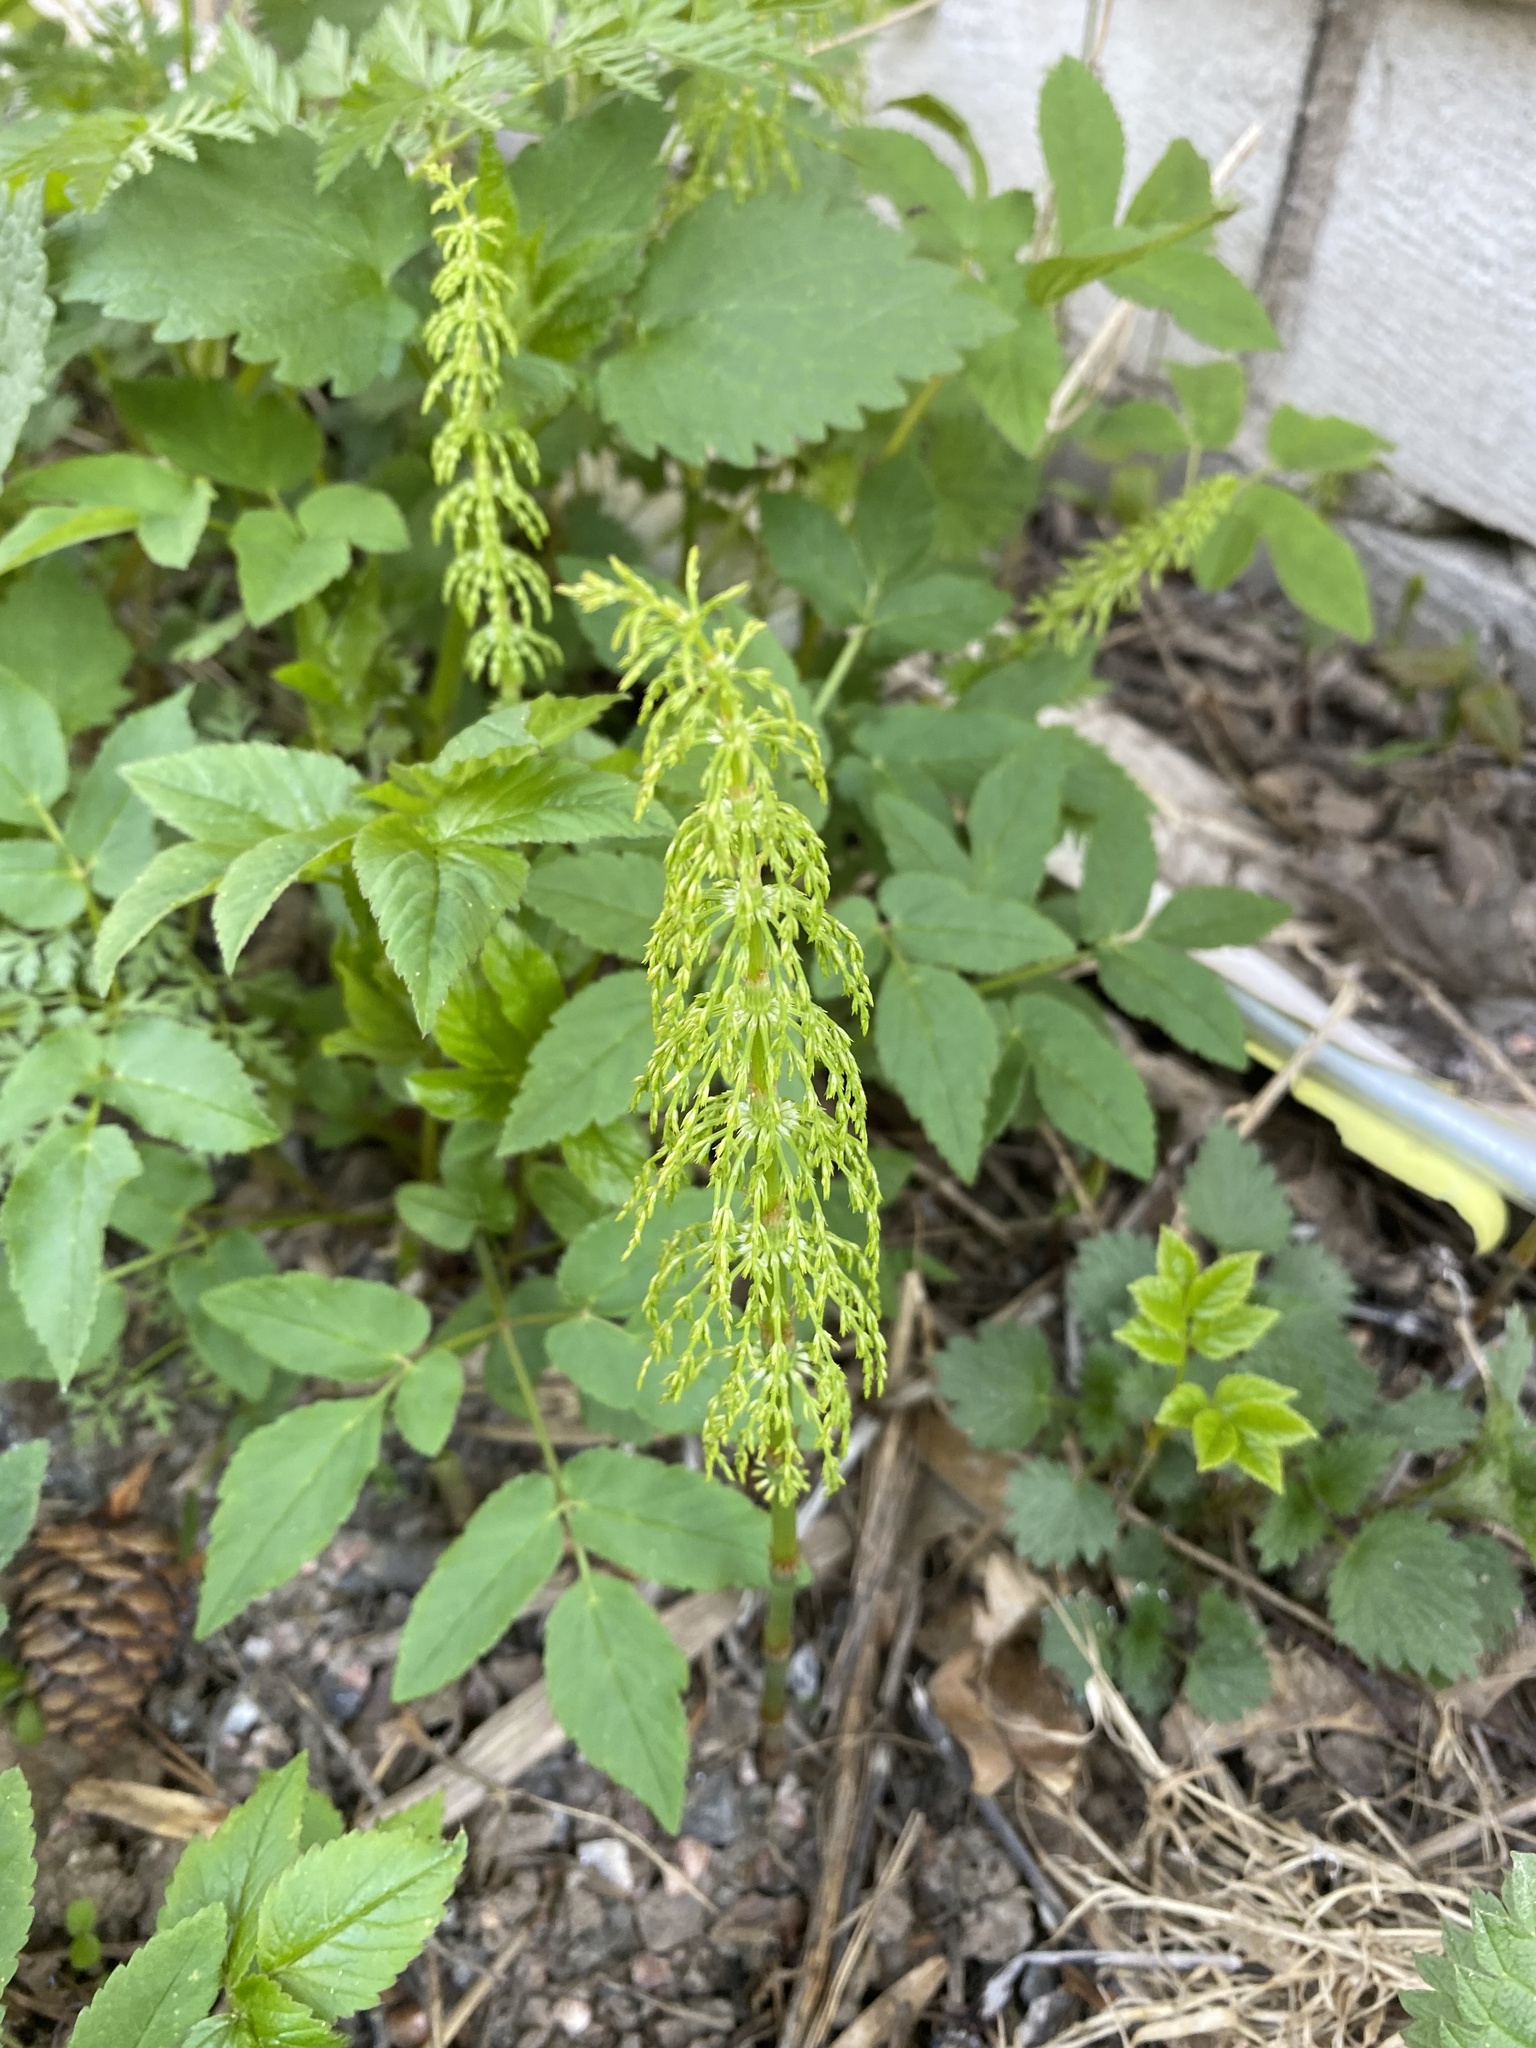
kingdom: Plantae
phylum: Tracheophyta
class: Polypodiopsida
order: Equisetales
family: Equisetaceae
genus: Equisetum
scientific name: Equisetum sylvaticum
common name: Wood horsetail
